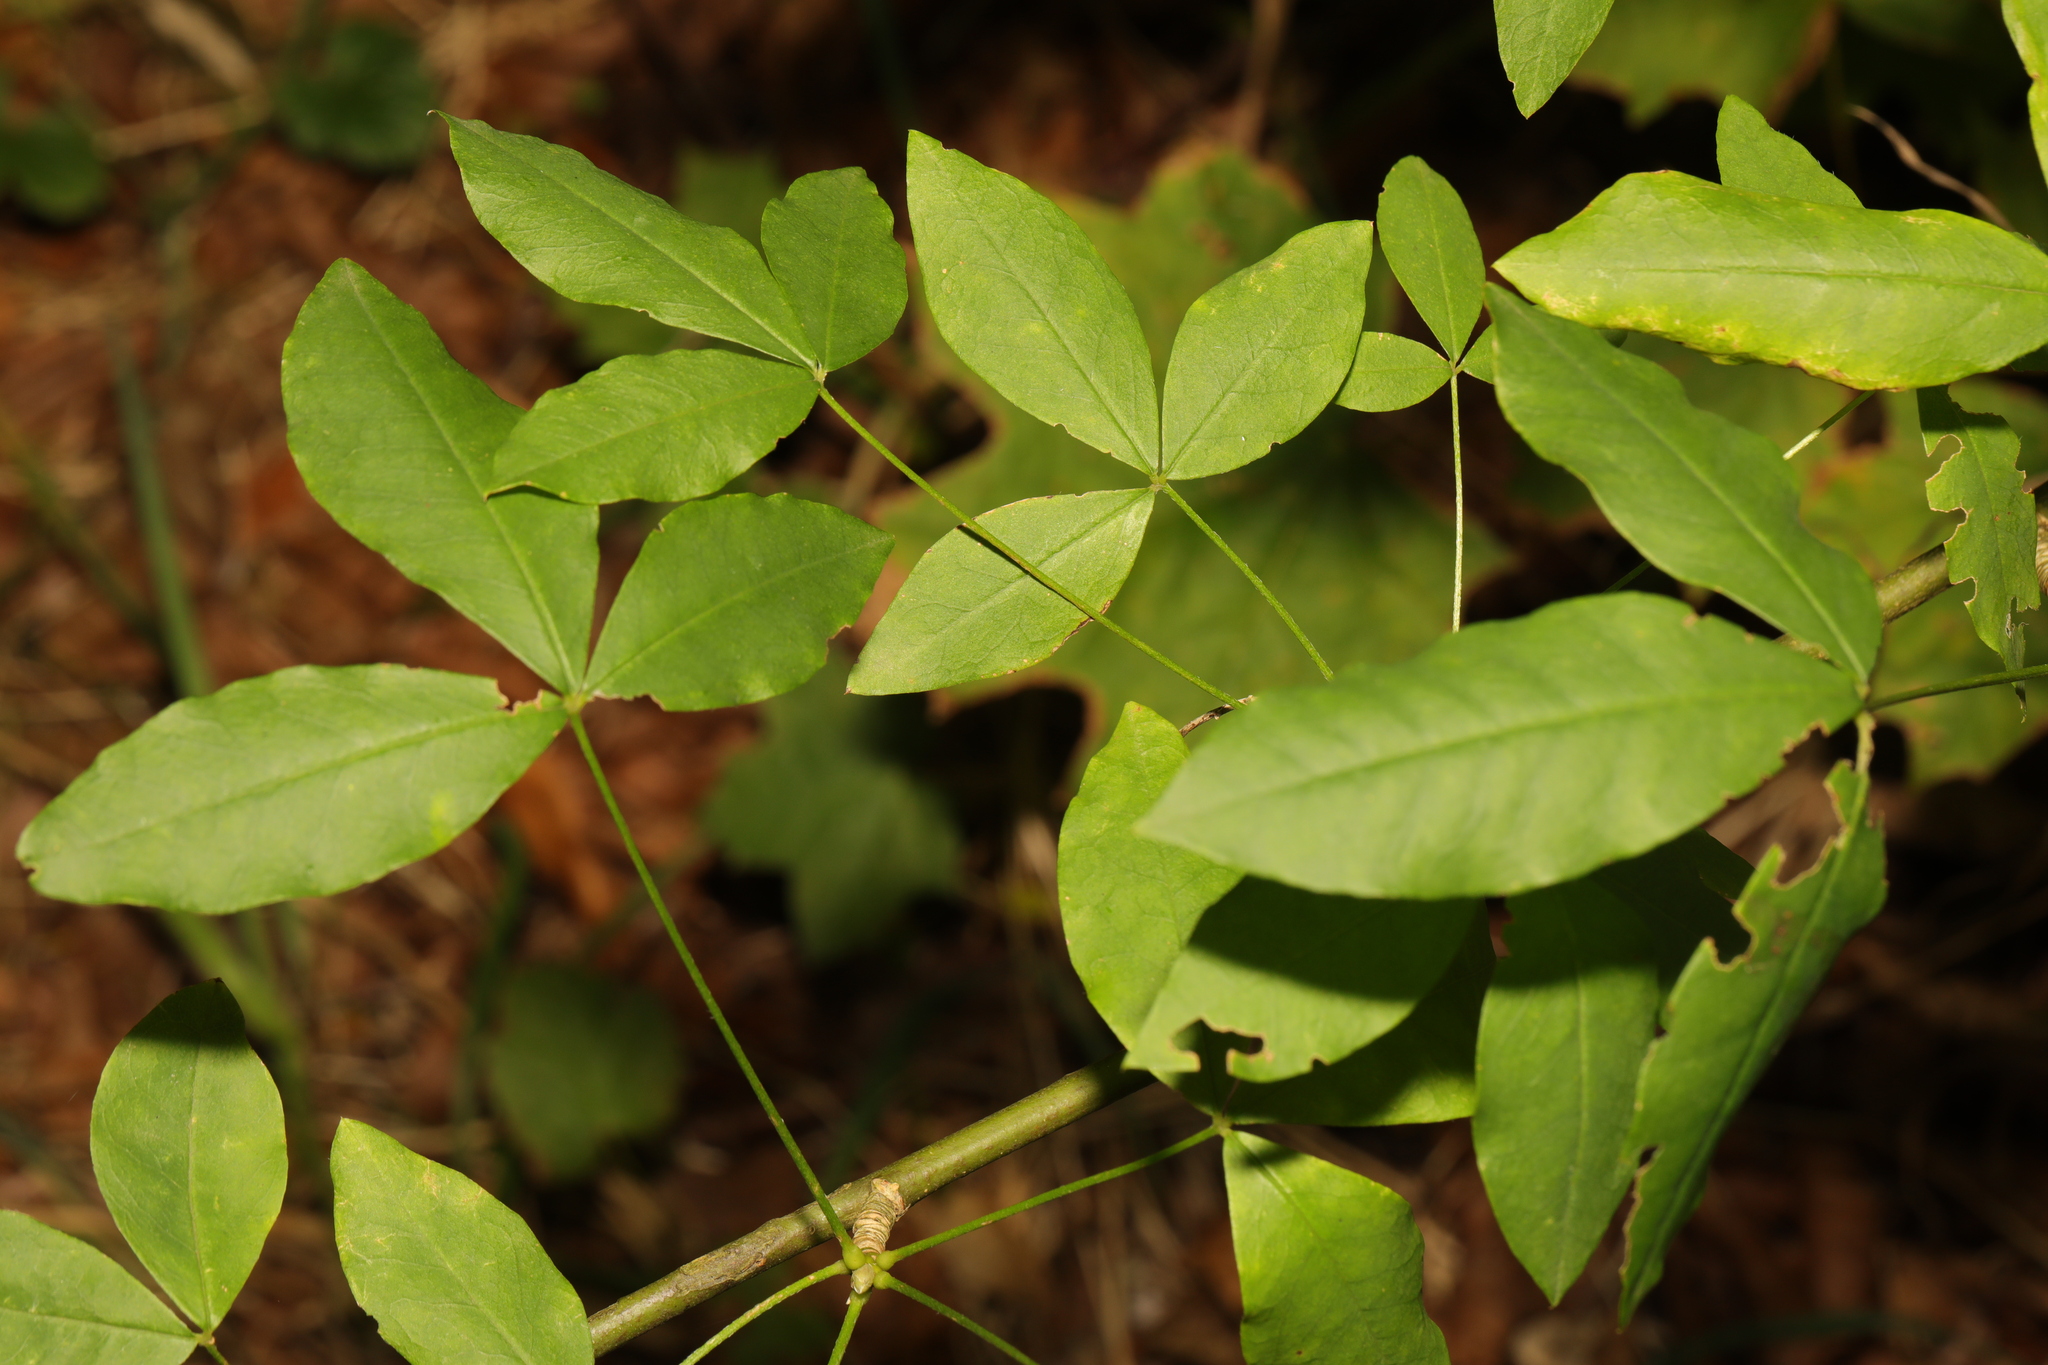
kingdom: Plantae
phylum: Tracheophyta
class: Magnoliopsida
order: Fabales
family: Fabaceae
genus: Laburnum
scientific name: Laburnum anagyroides
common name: Laburnum
